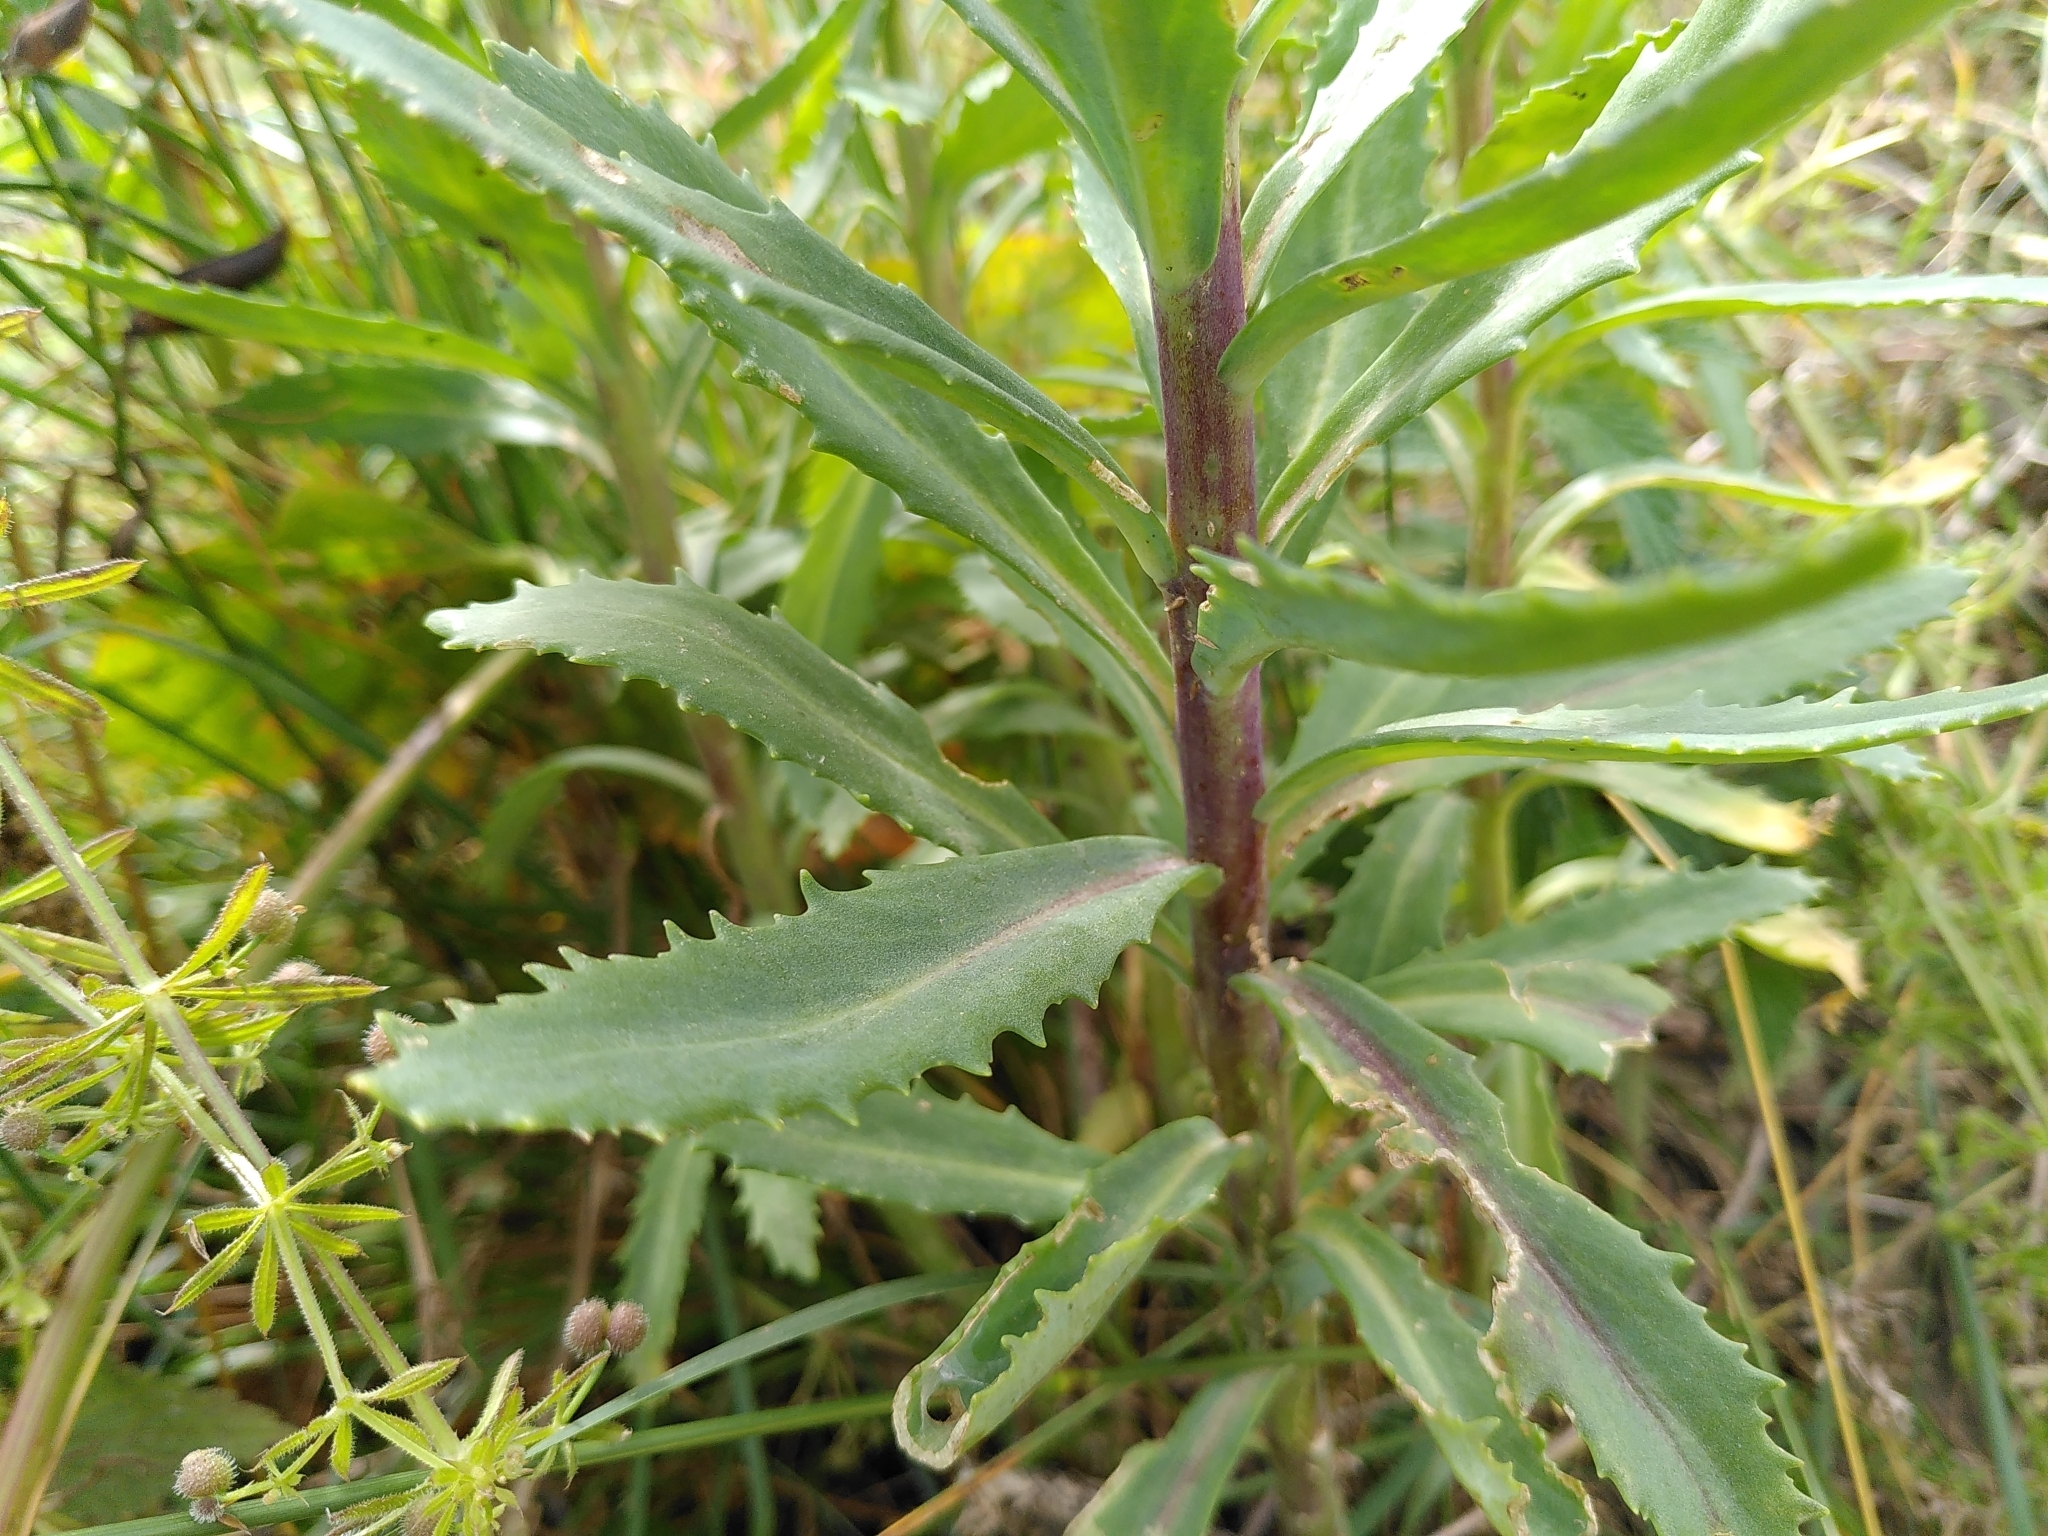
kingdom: Plantae
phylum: Tracheophyta
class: Magnoliopsida
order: Saxifragales
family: Crassulaceae
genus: Hylotelephium
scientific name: Hylotelephium telephium
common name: Live-forever
